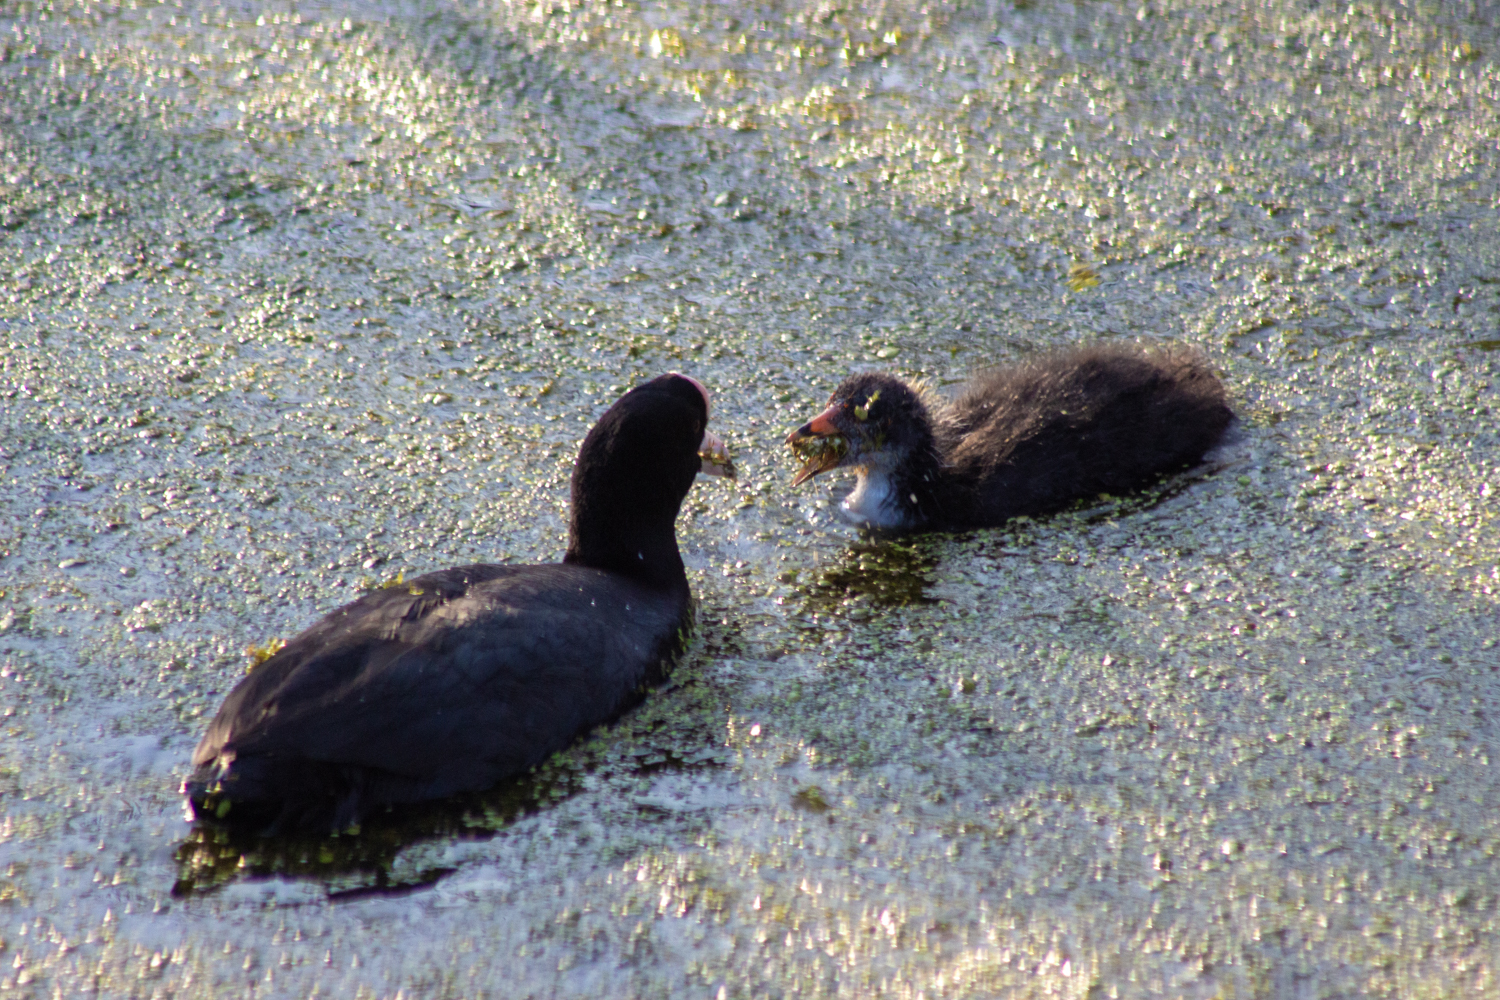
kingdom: Animalia
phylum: Chordata
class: Aves
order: Gruiformes
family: Rallidae
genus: Fulica
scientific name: Fulica atra
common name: Eurasian coot
